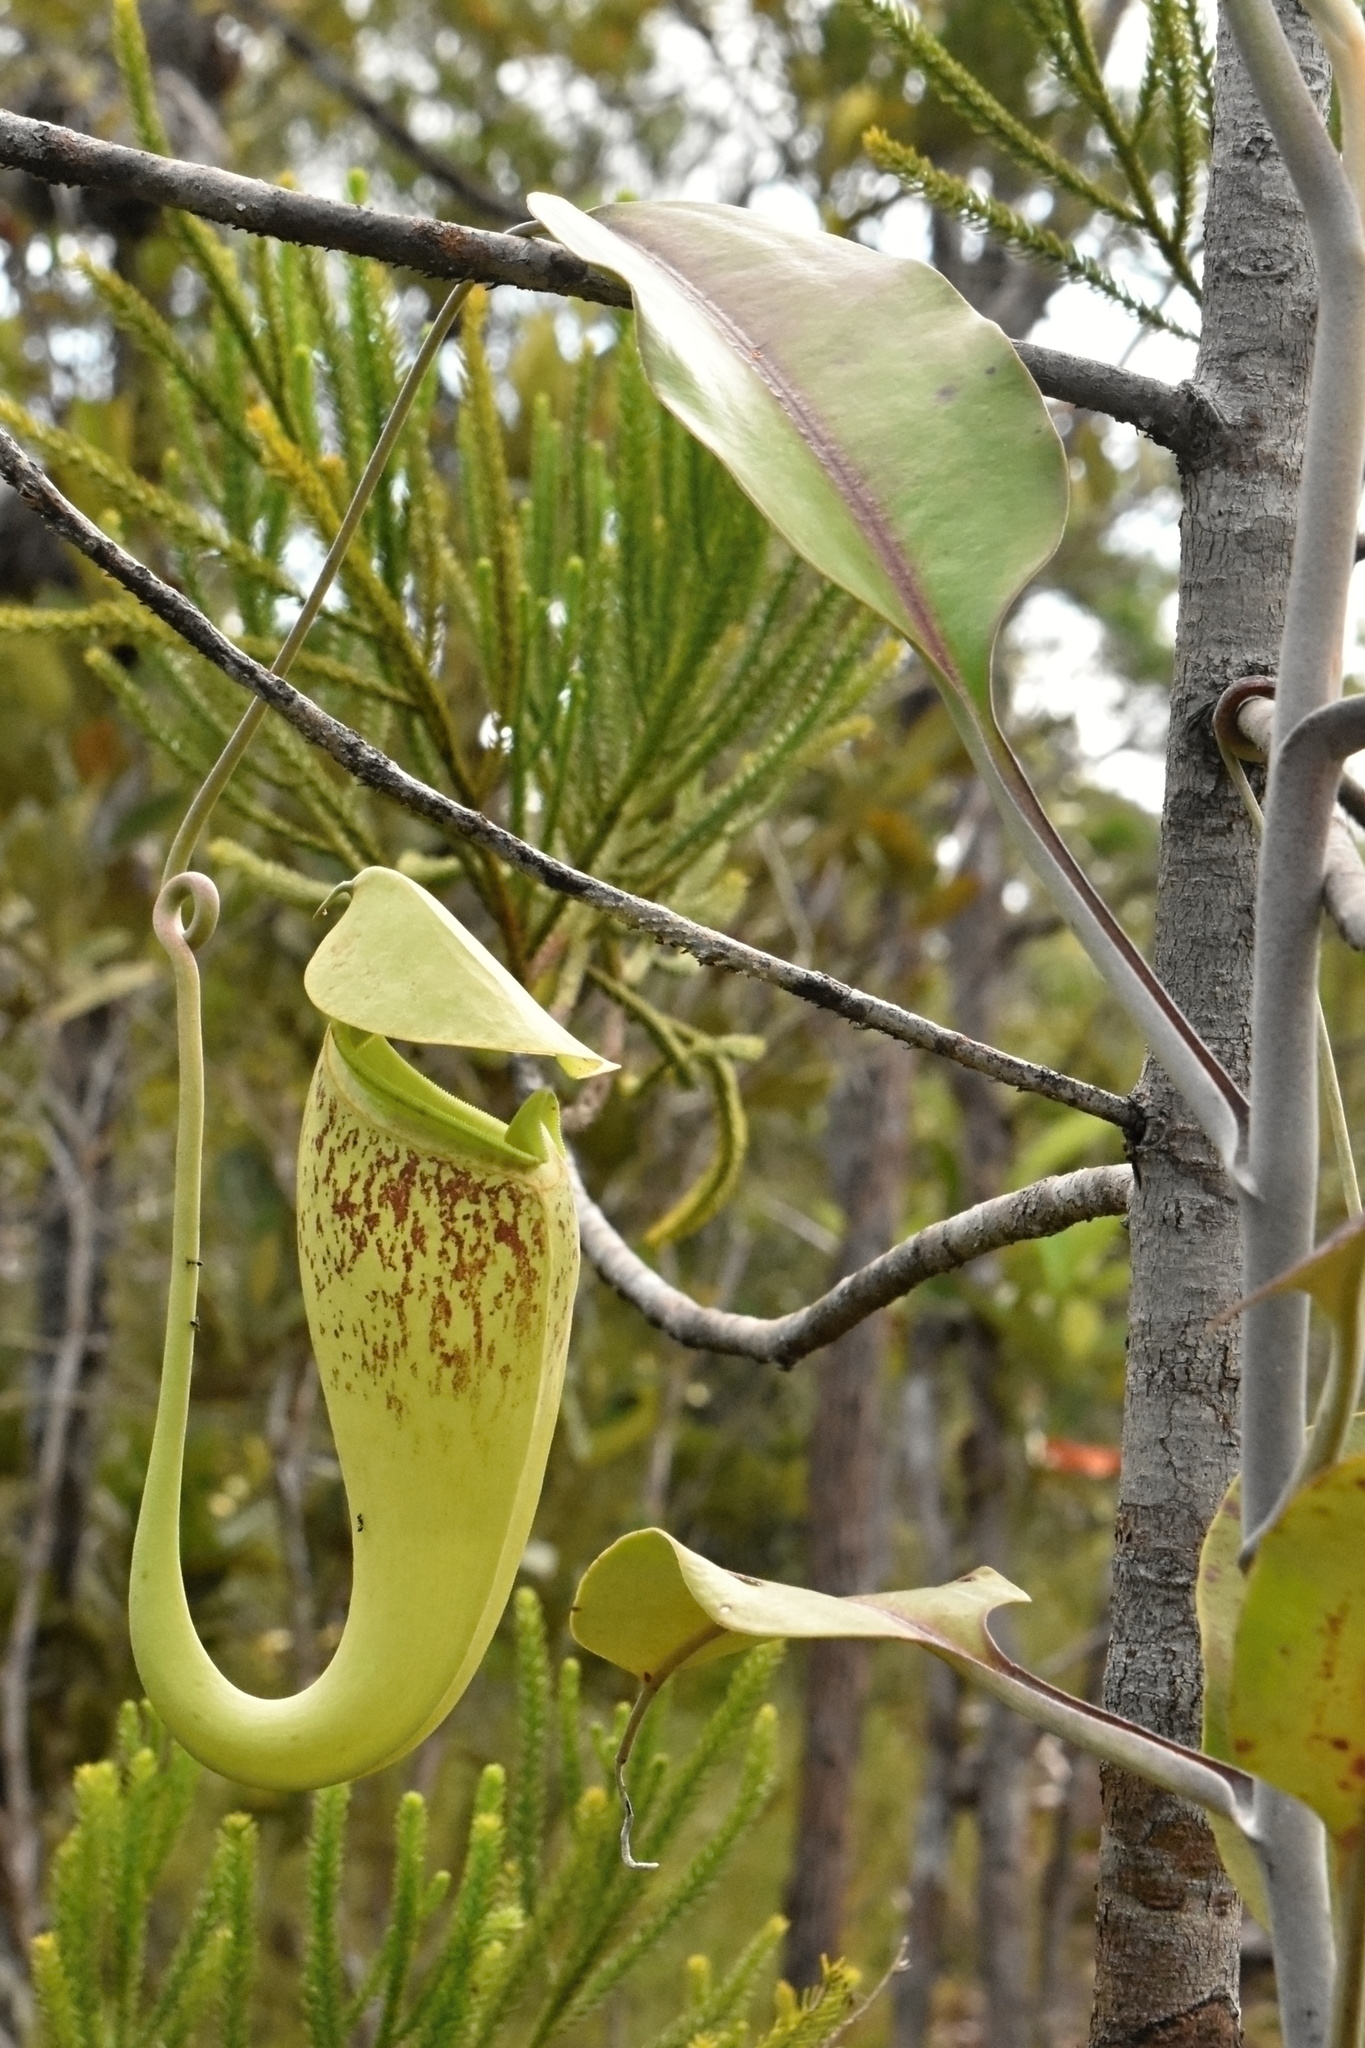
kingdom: Plantae
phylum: Tracheophyta
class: Magnoliopsida
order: Caryophyllales
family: Nepenthaceae
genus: Nepenthes
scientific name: Nepenthes rafflesiana
